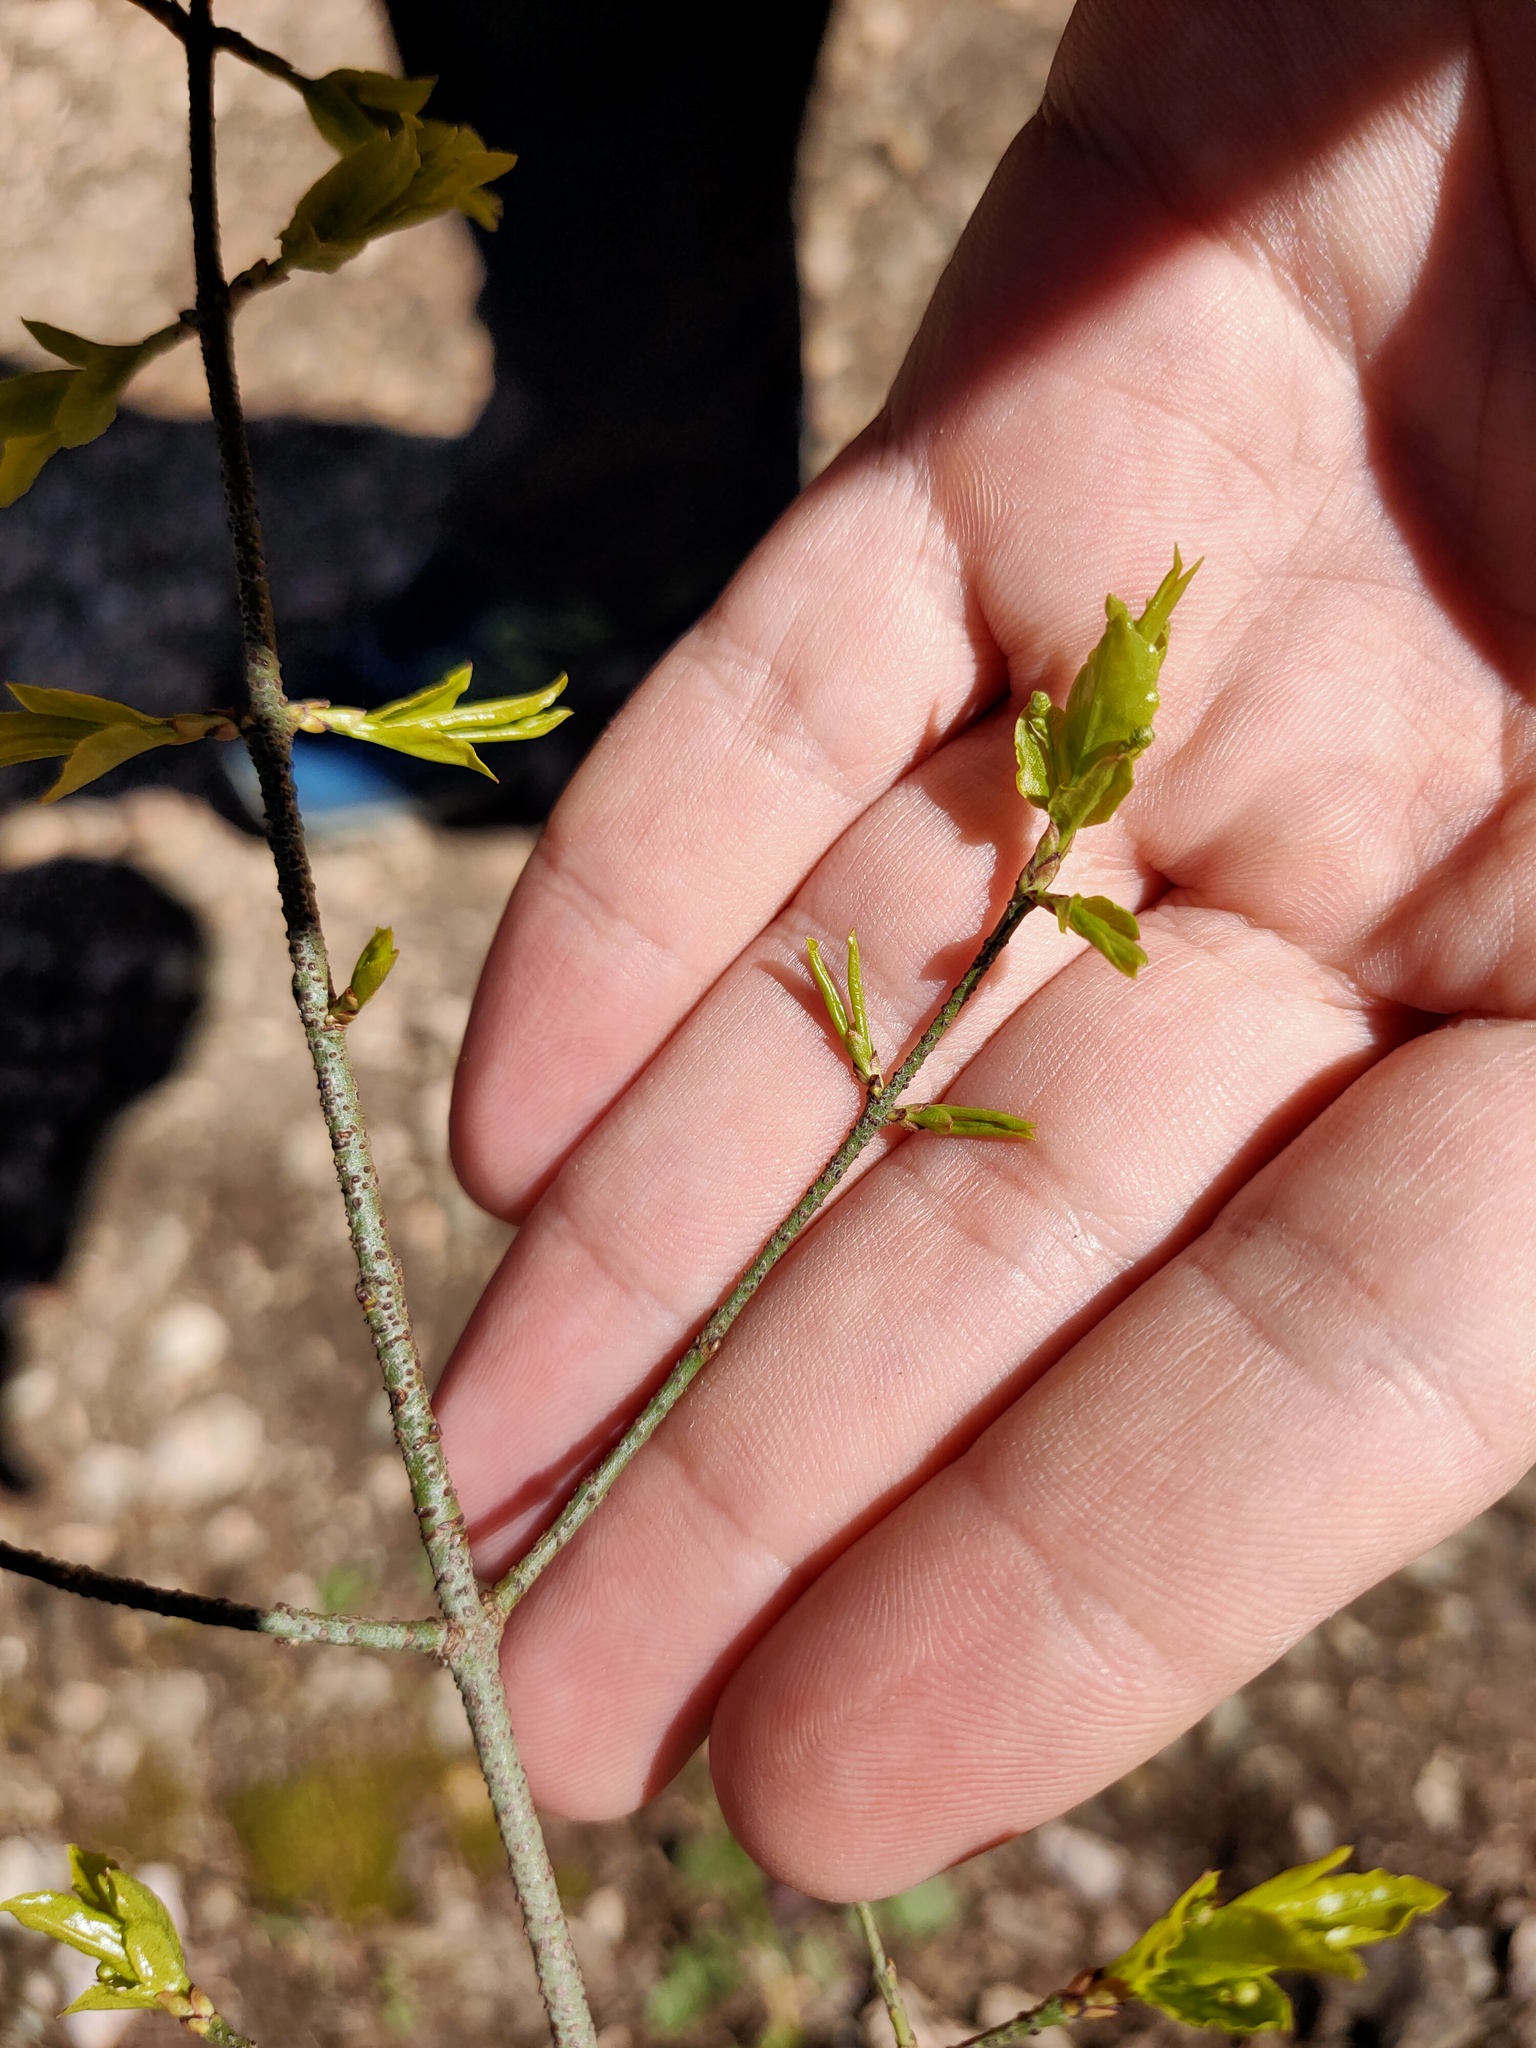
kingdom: Plantae
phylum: Tracheophyta
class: Magnoliopsida
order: Celastrales
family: Celastraceae
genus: Euonymus
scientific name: Euonymus verrucosus
